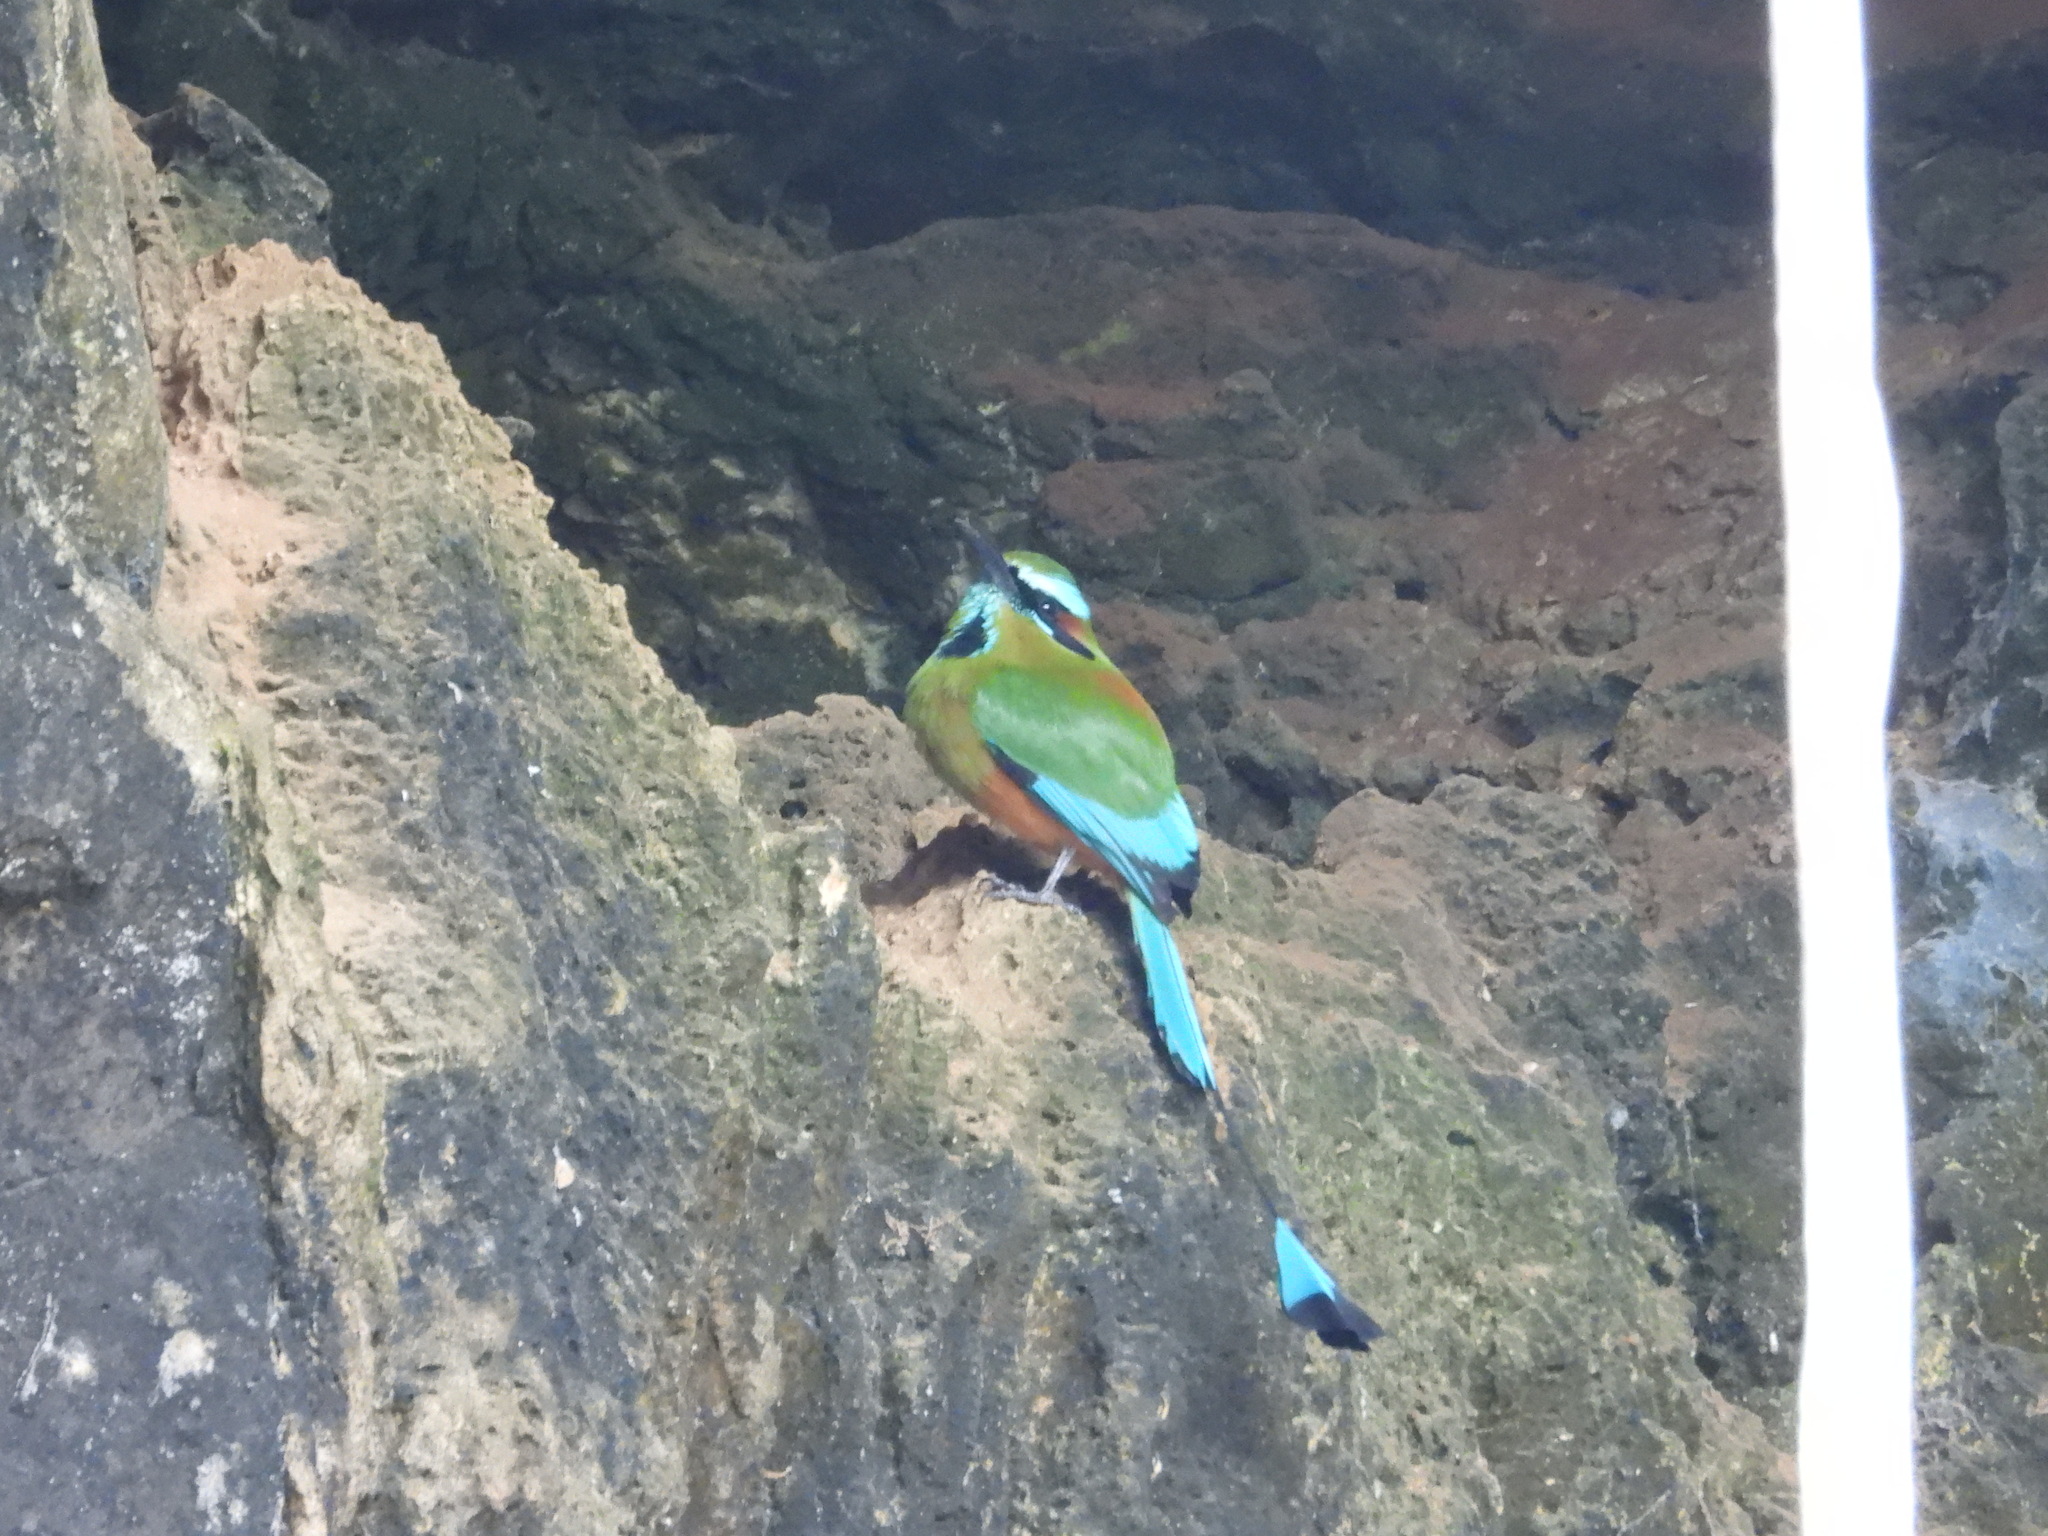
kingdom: Animalia
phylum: Chordata
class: Aves
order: Coraciiformes
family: Momotidae
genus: Eumomota
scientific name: Eumomota superciliosa
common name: Turquoise-browed motmot
